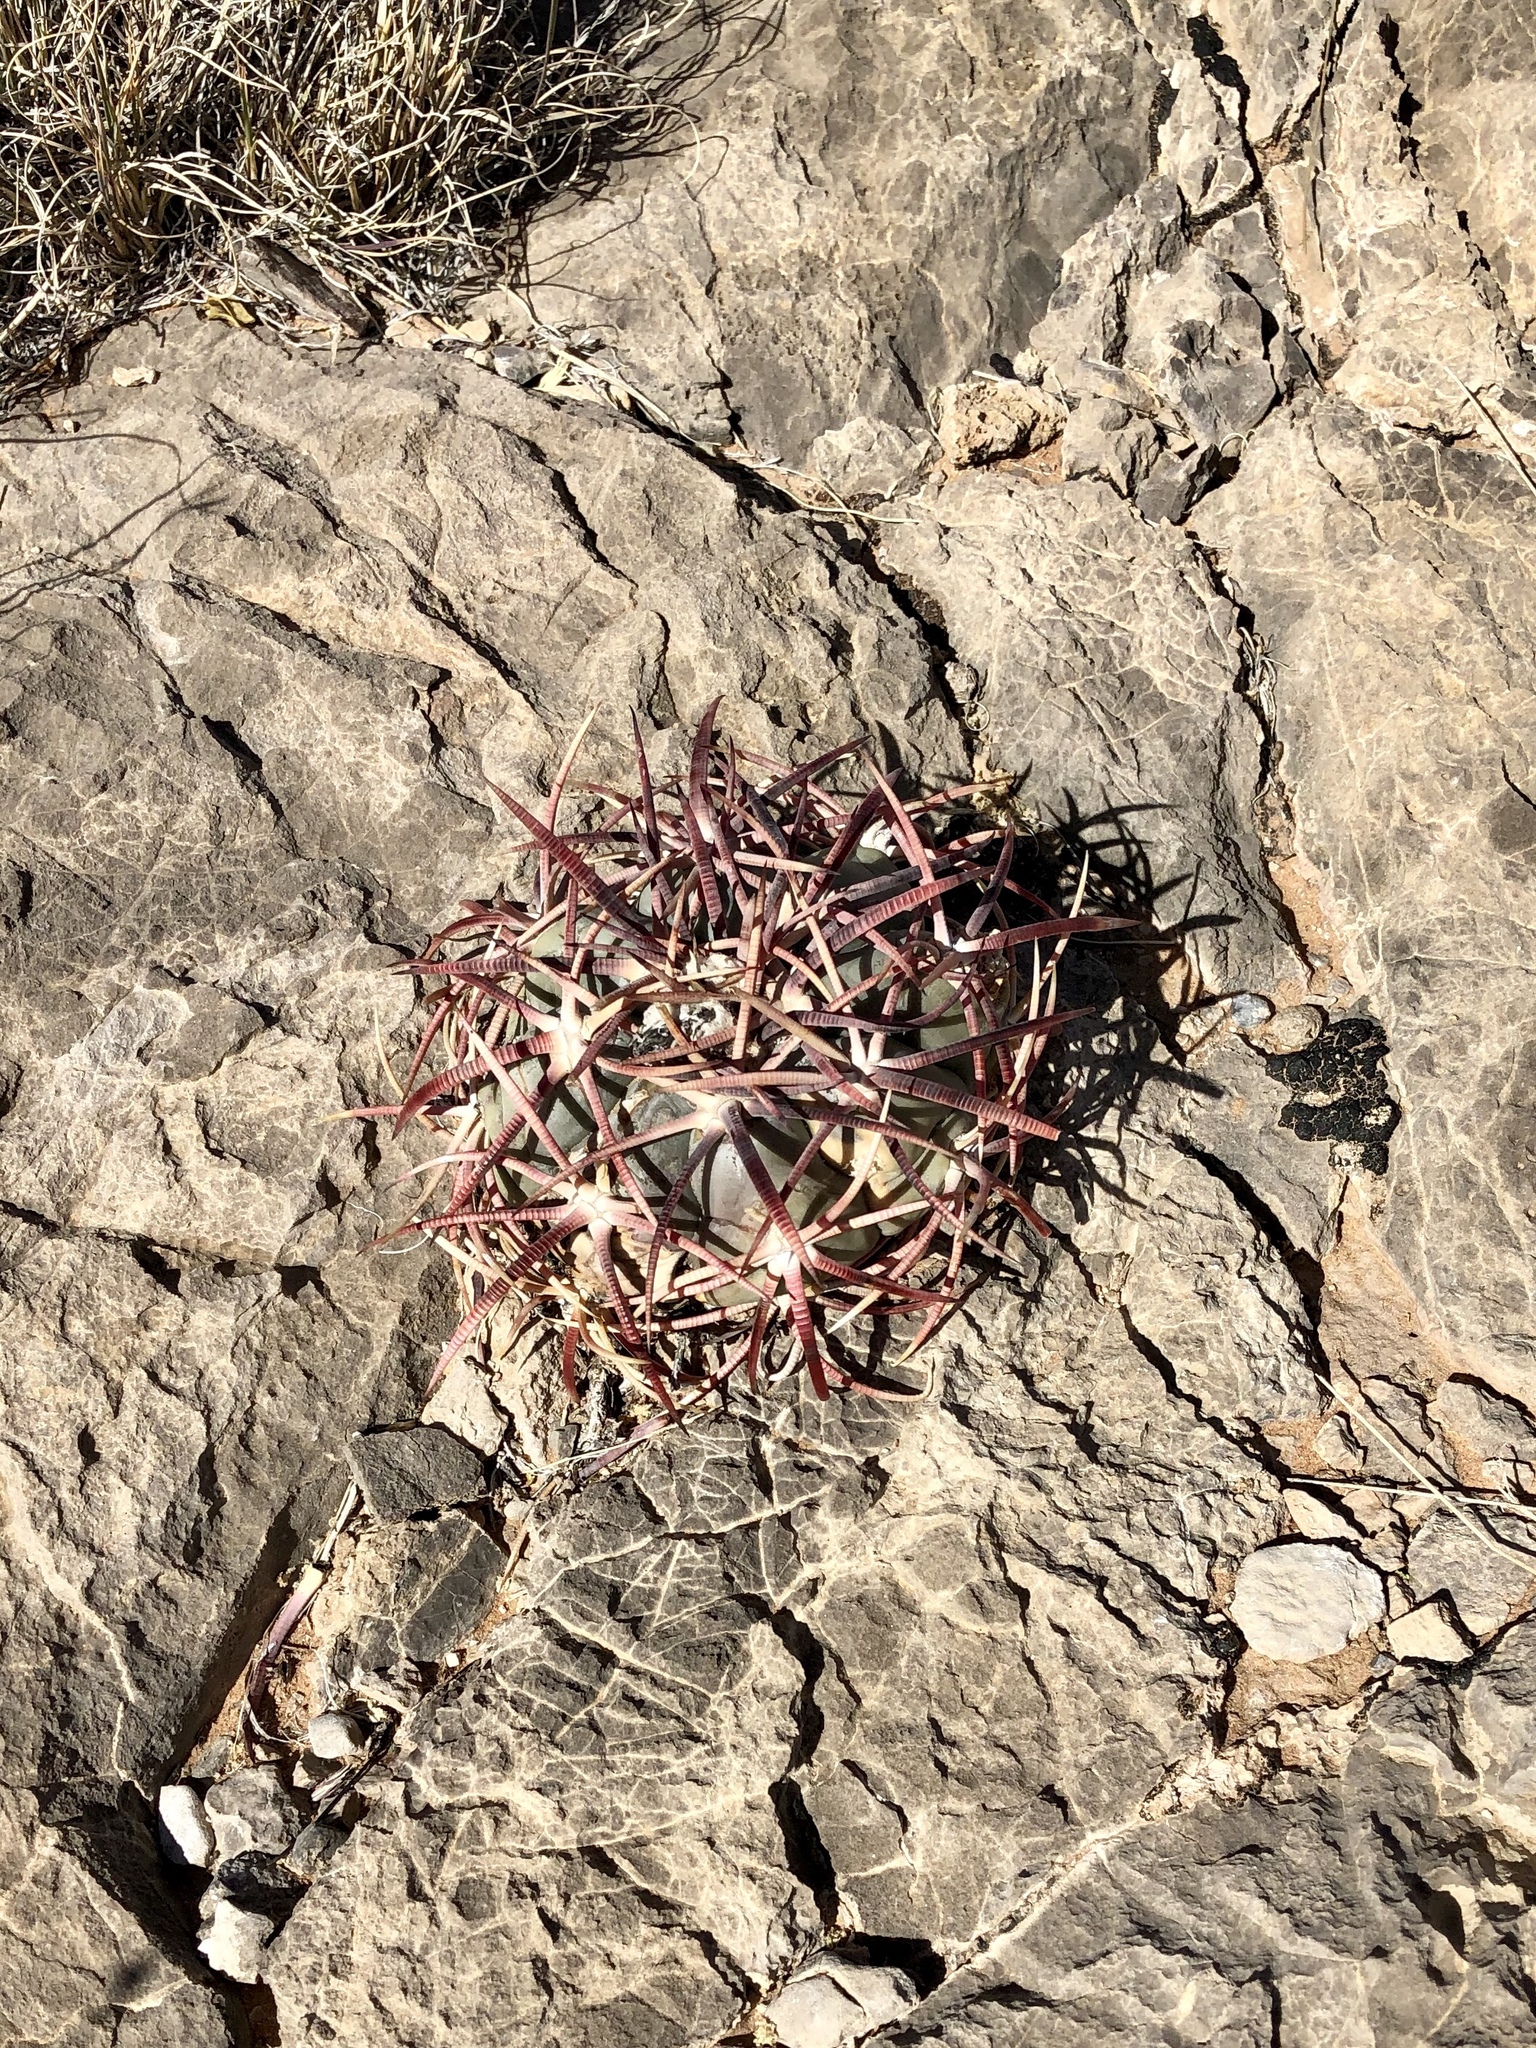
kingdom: Plantae
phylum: Tracheophyta
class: Magnoliopsida
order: Caryophyllales
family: Cactaceae
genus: Echinocactus
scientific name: Echinocactus horizonthalonius
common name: Devilshead
